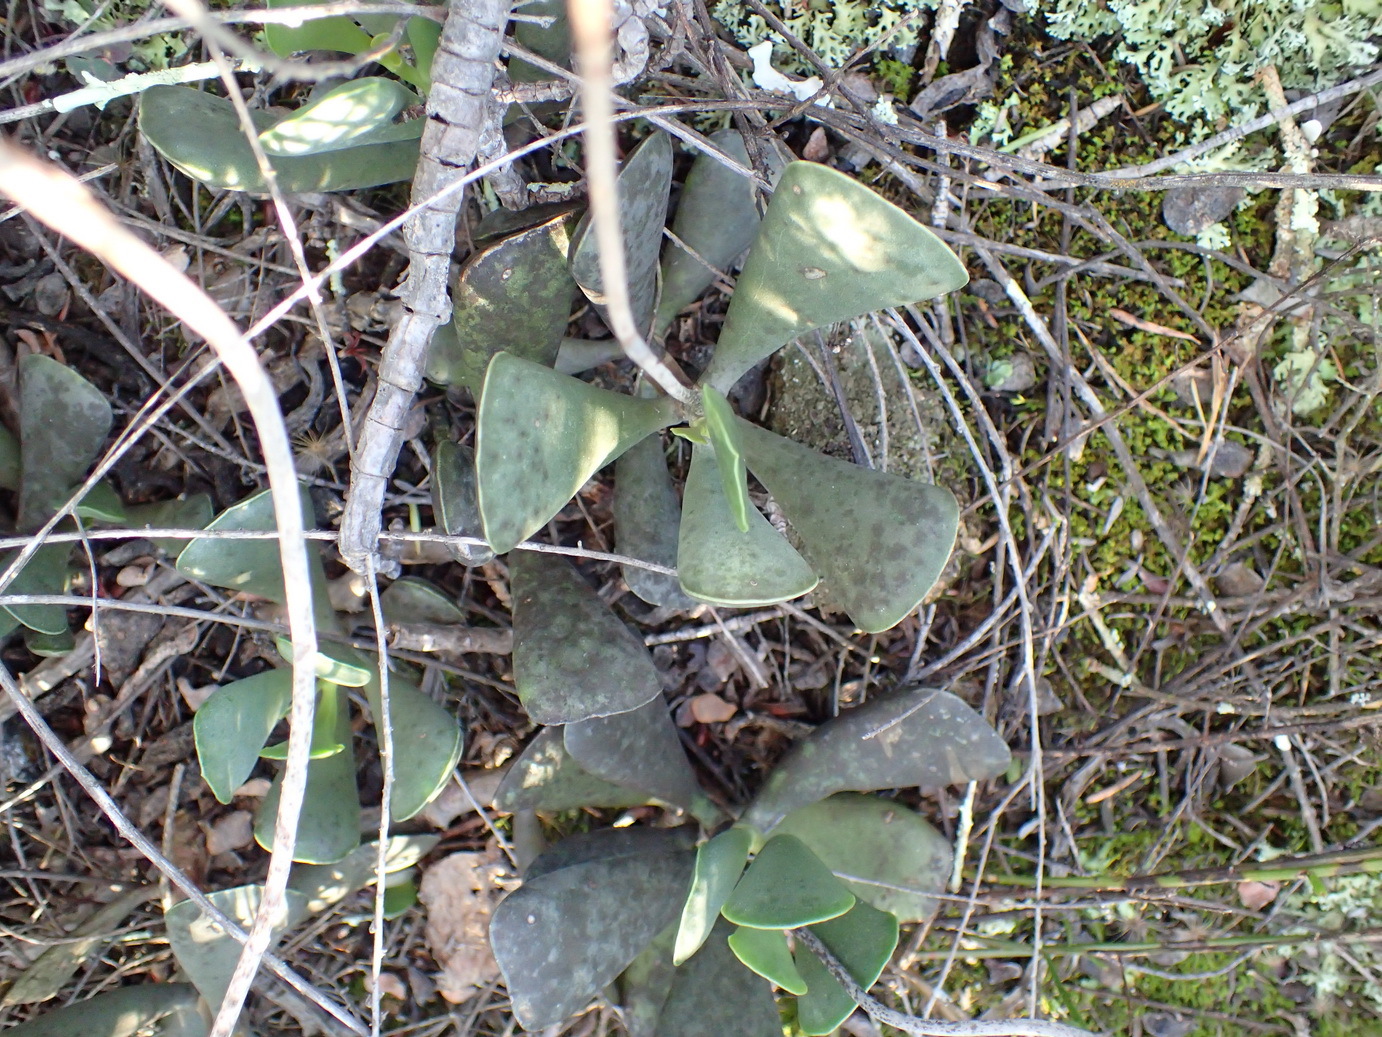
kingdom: Plantae
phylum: Tracheophyta
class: Magnoliopsida
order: Saxifragales
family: Crassulaceae
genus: Adromischus
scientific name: Adromischus triflorus
